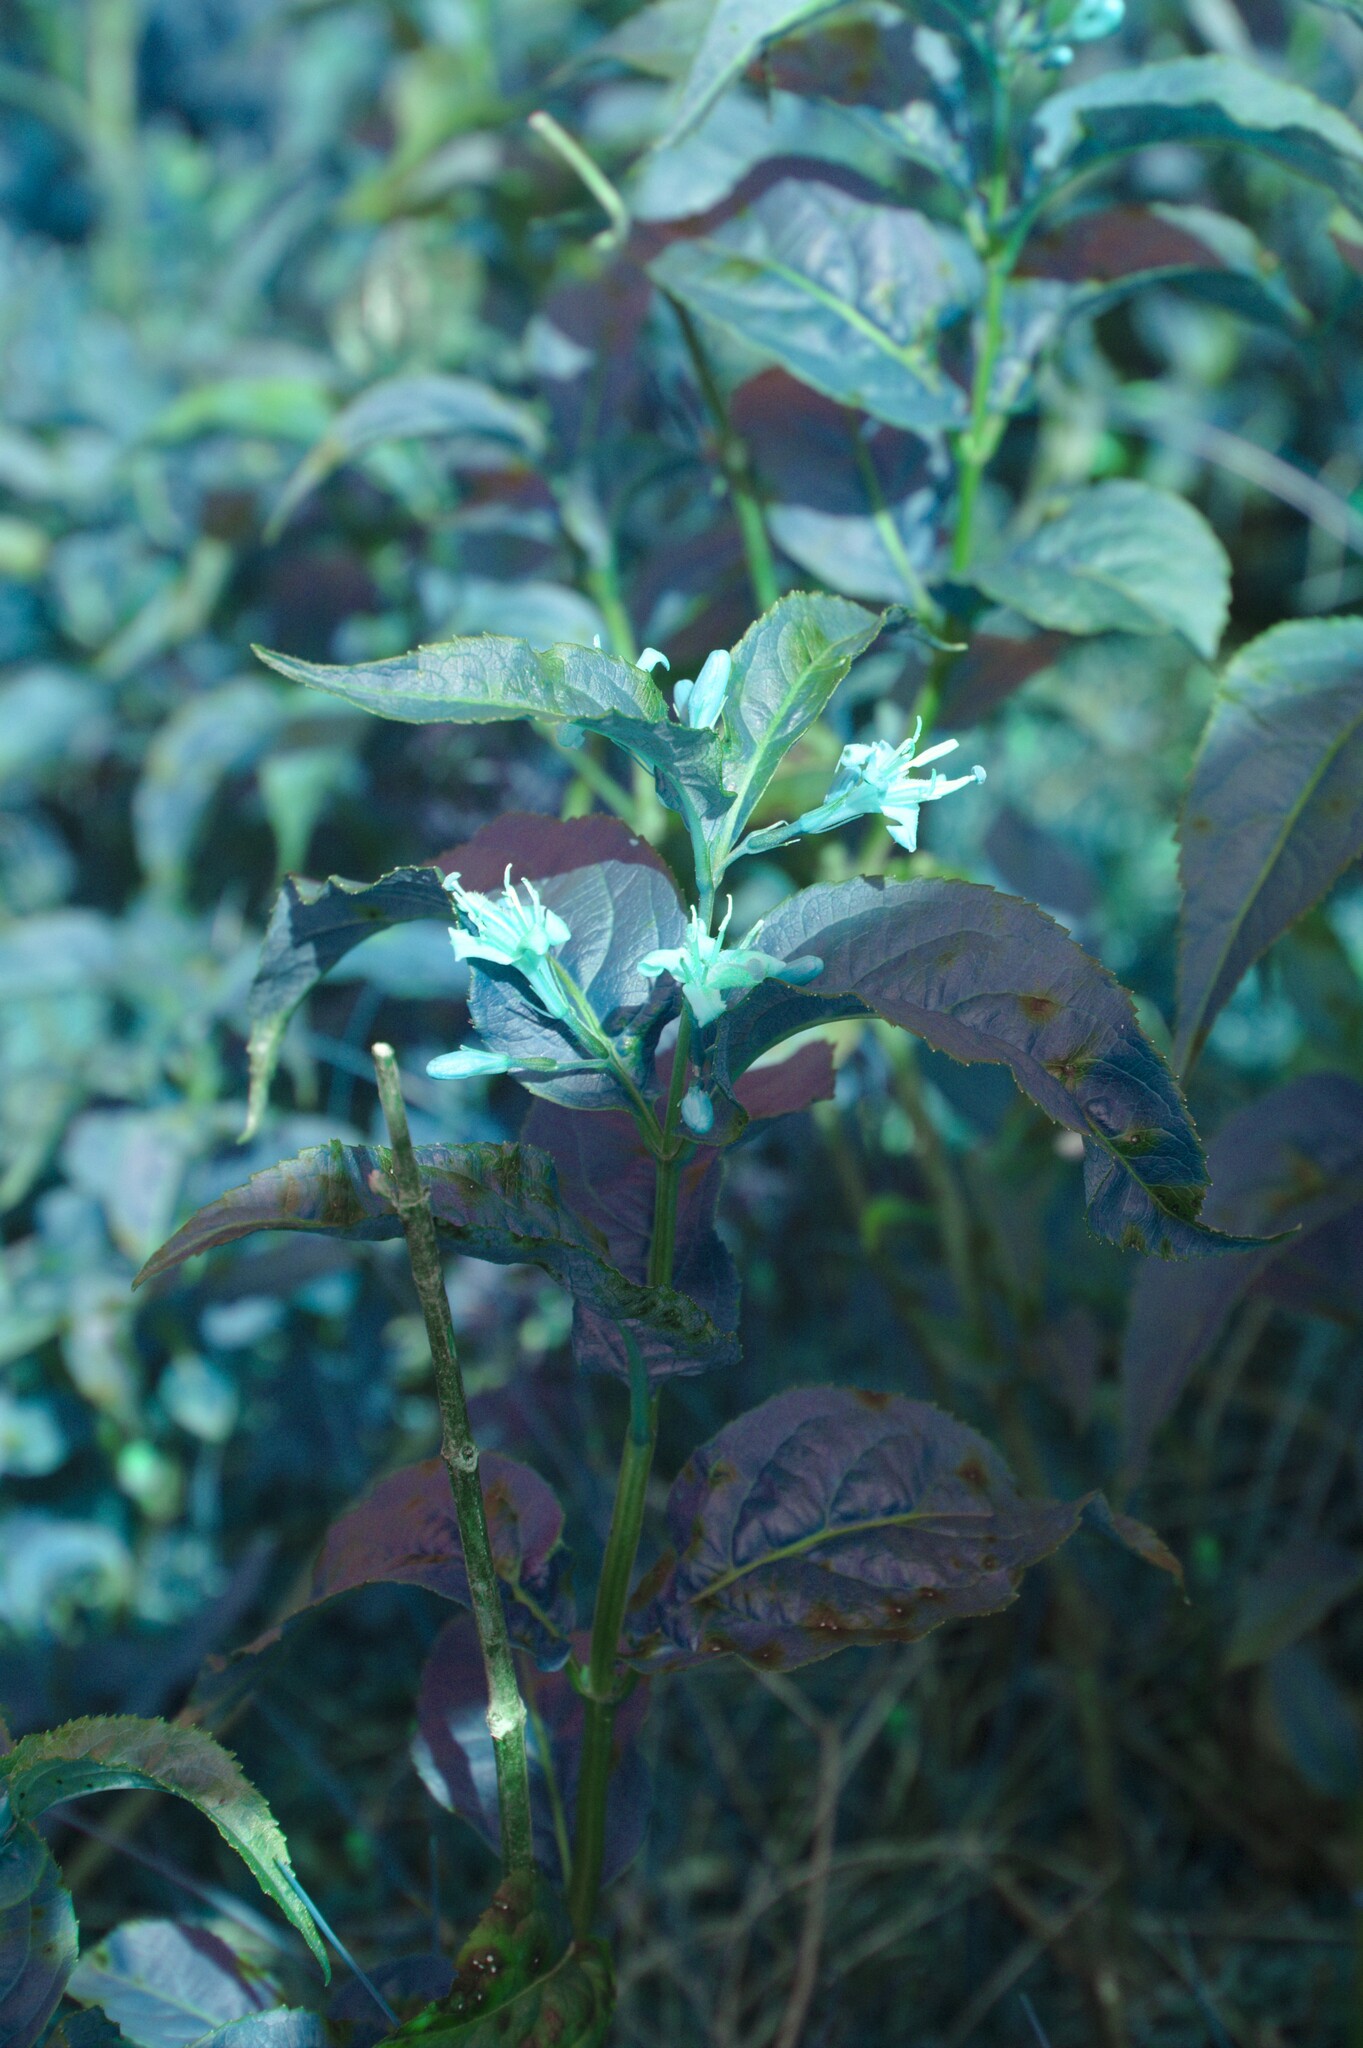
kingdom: Plantae
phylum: Tracheophyta
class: Magnoliopsida
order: Dipsacales
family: Caprifoliaceae
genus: Diervilla
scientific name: Diervilla lonicera
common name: Bush-honeysuckle
